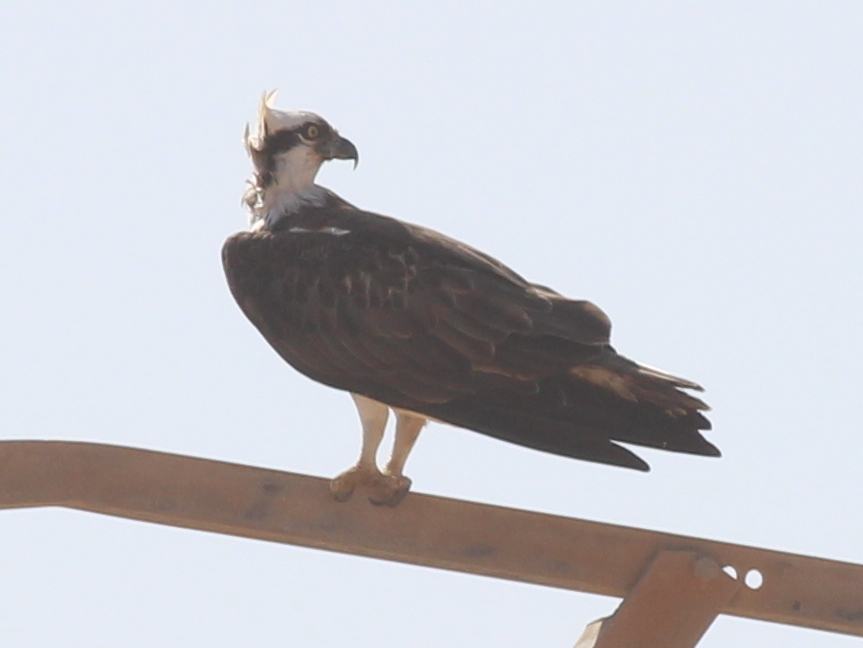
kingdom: Animalia
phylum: Chordata
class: Aves
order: Accipitriformes
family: Pandionidae
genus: Pandion
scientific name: Pandion haliaetus
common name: Osprey
